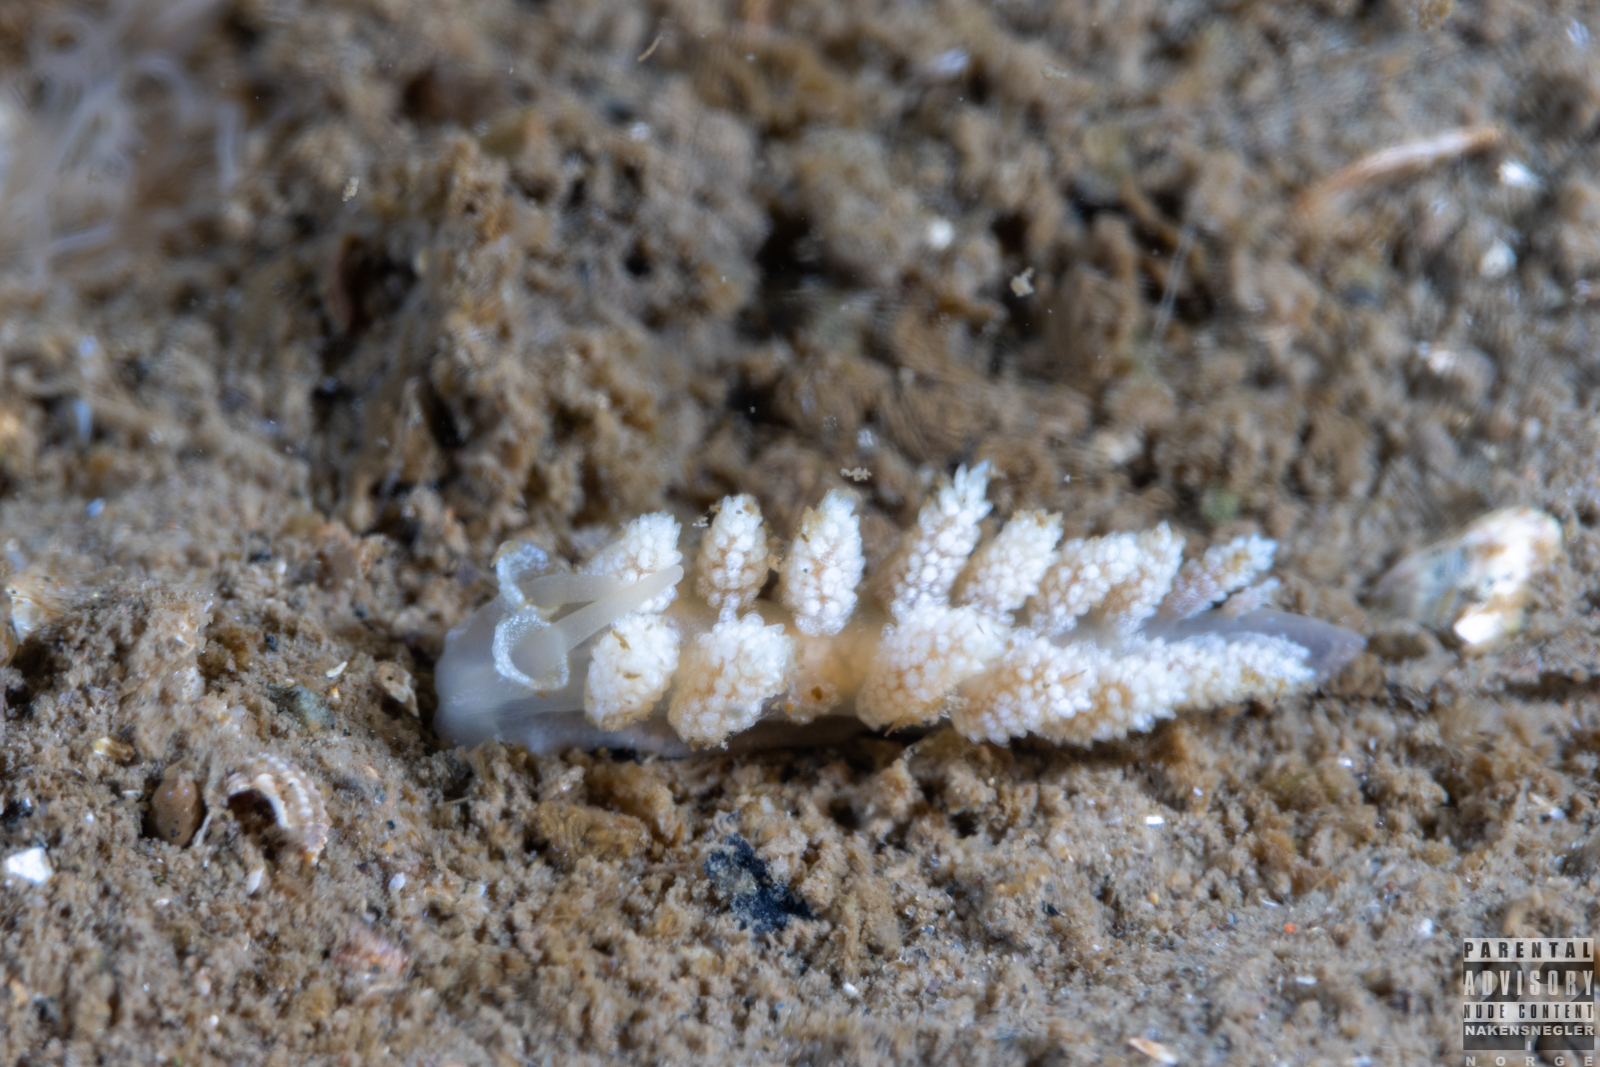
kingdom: Animalia
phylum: Mollusca
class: Gastropoda
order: Nudibranchia
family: Dotidae
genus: Doto
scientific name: Doto fragilis
